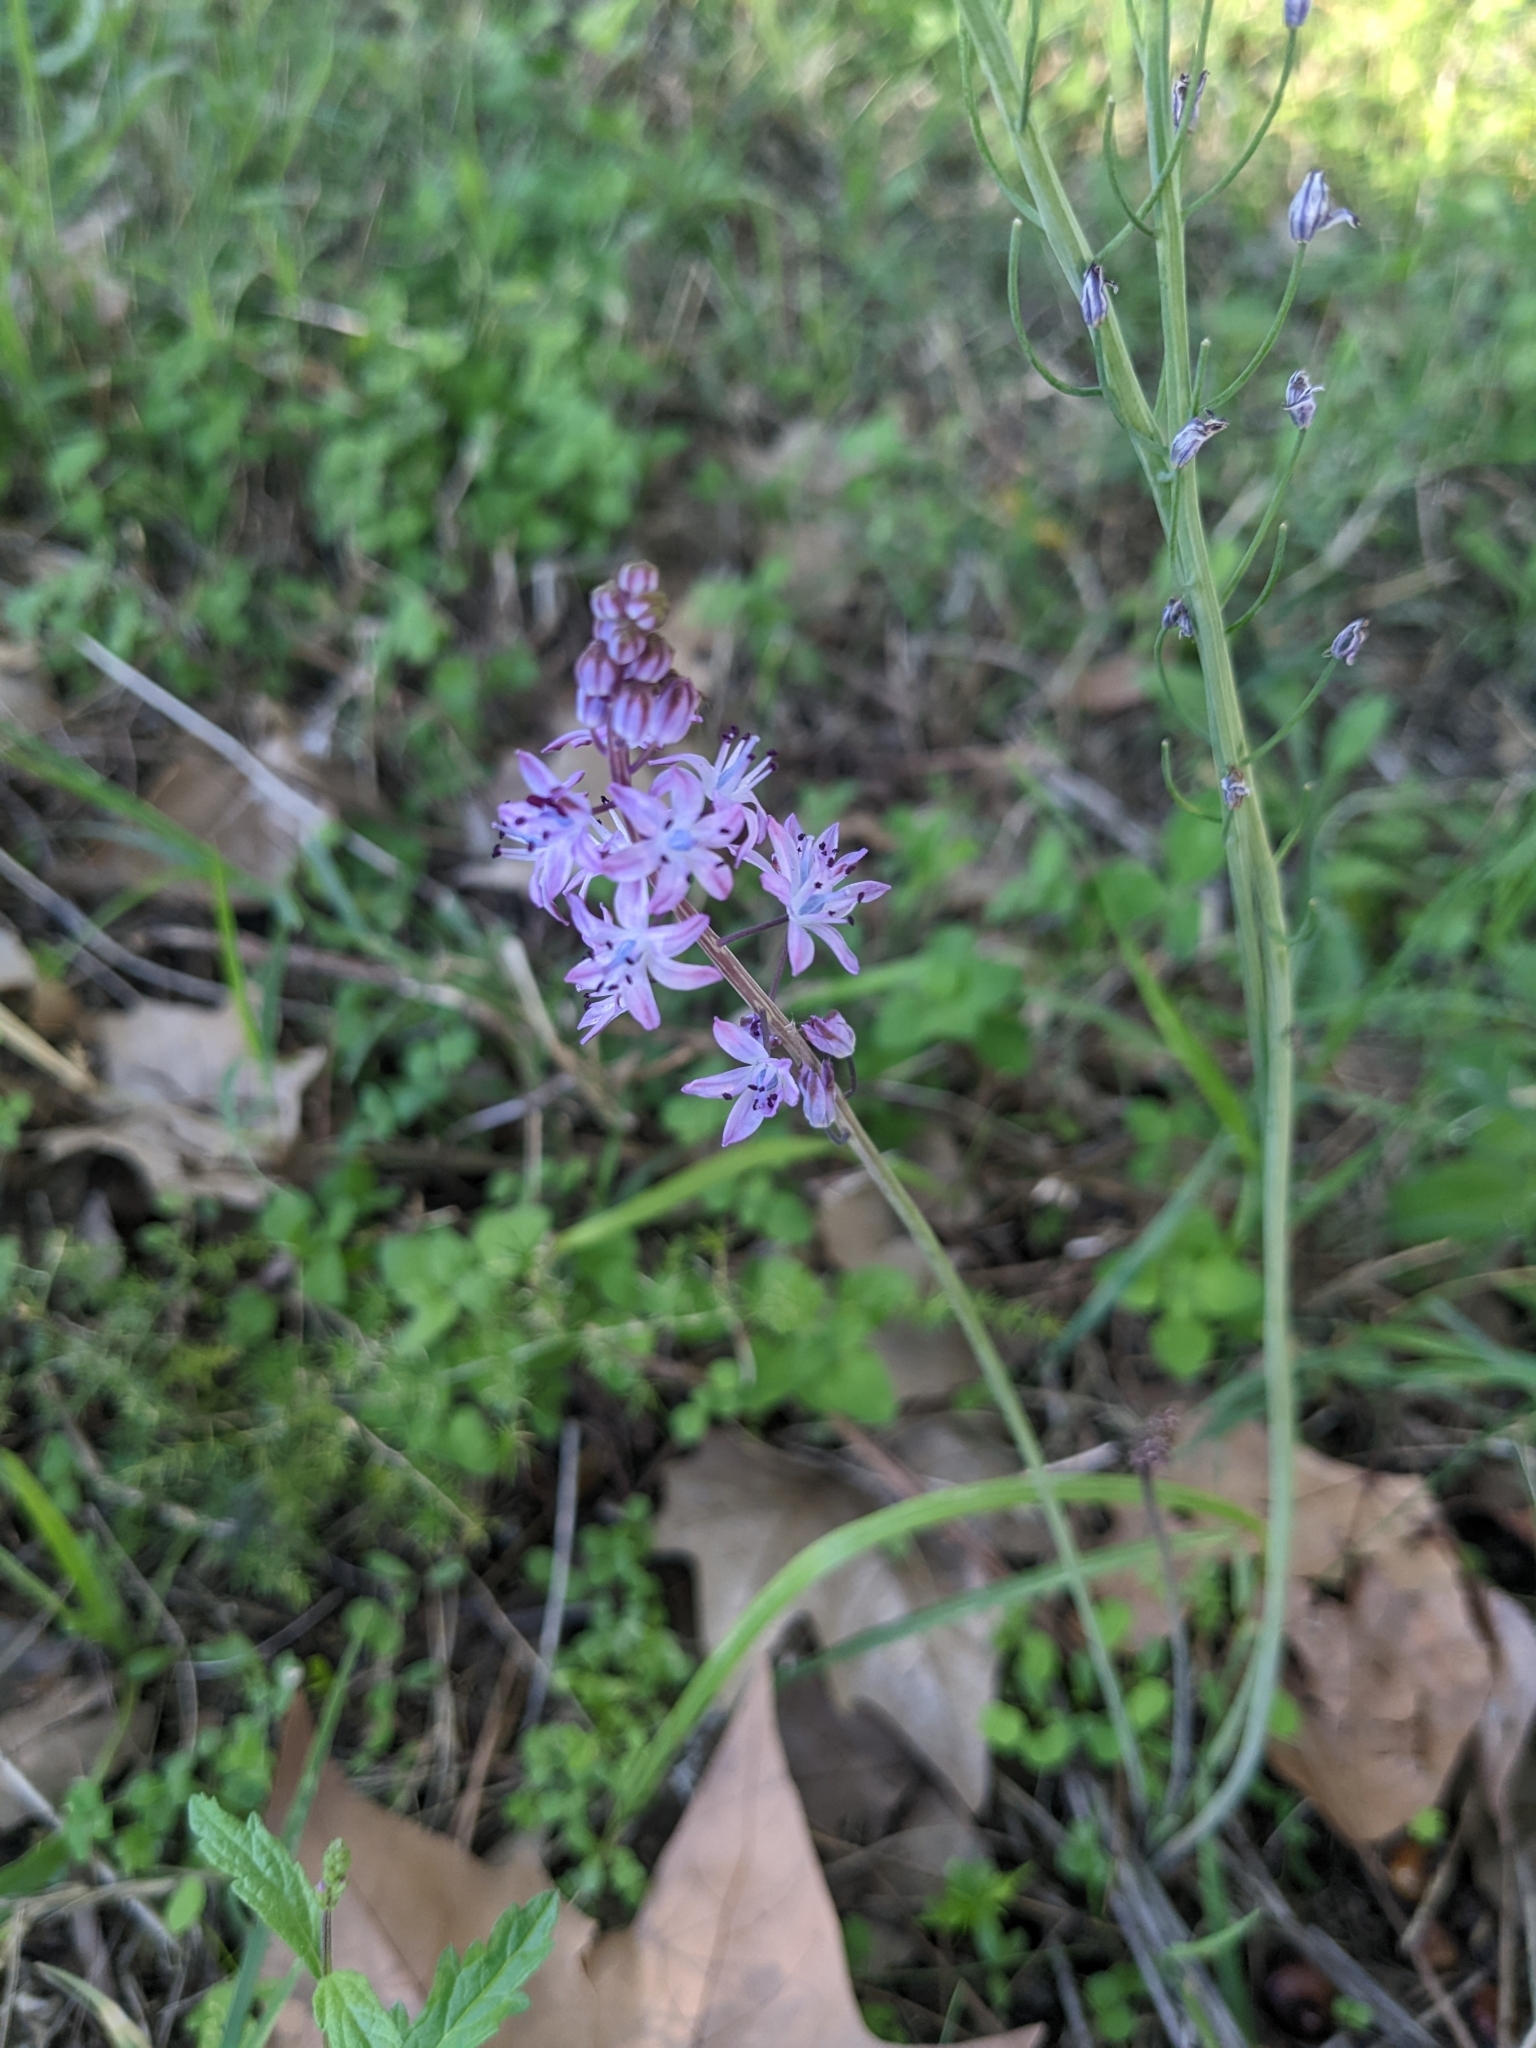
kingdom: Plantae
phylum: Tracheophyta
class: Liliopsida
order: Asparagales
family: Asparagaceae
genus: Prospero
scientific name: Prospero autumnale
